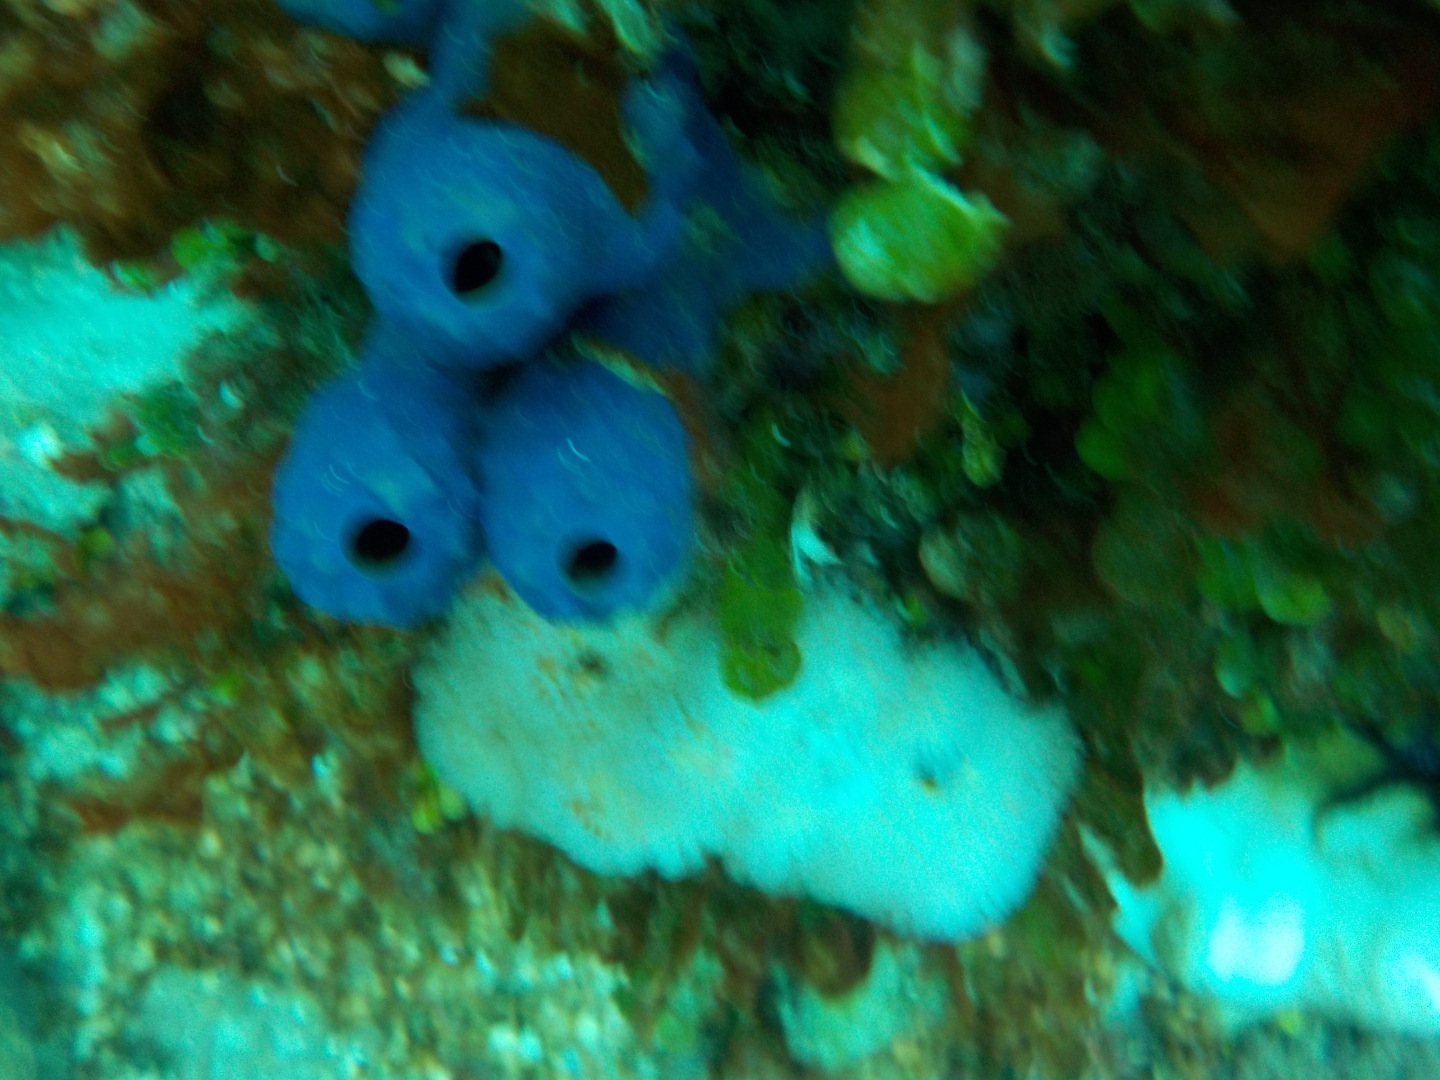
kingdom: Animalia
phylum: Porifera
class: Demospongiae
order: Verongiida
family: Aplysinidae
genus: Aiolochroia
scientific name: Aiolochroia crassa
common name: Branching tube sponge
